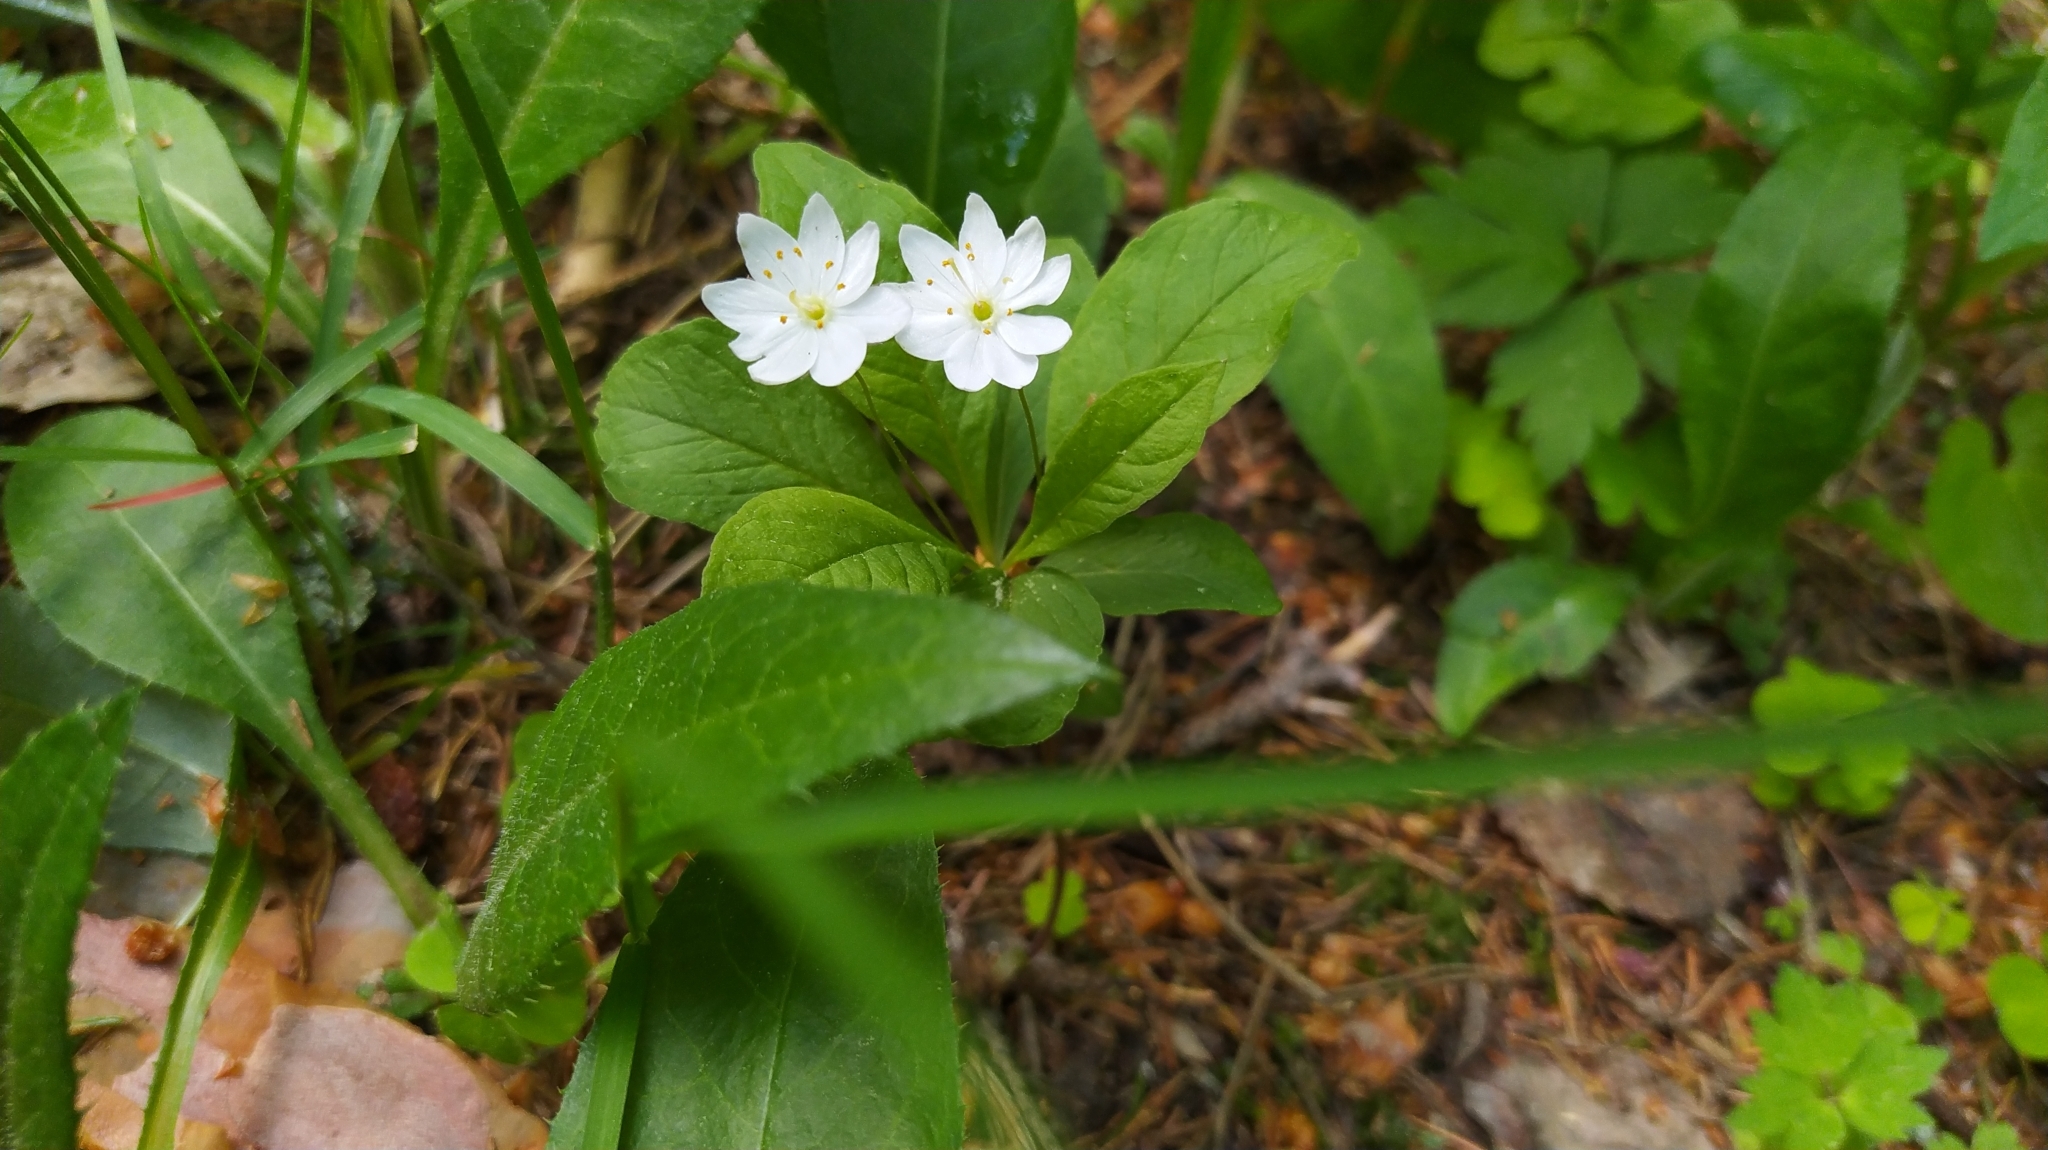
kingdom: Plantae
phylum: Tracheophyta
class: Magnoliopsida
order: Ericales
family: Primulaceae
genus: Lysimachia
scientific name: Lysimachia europaea
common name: Arctic starflower
